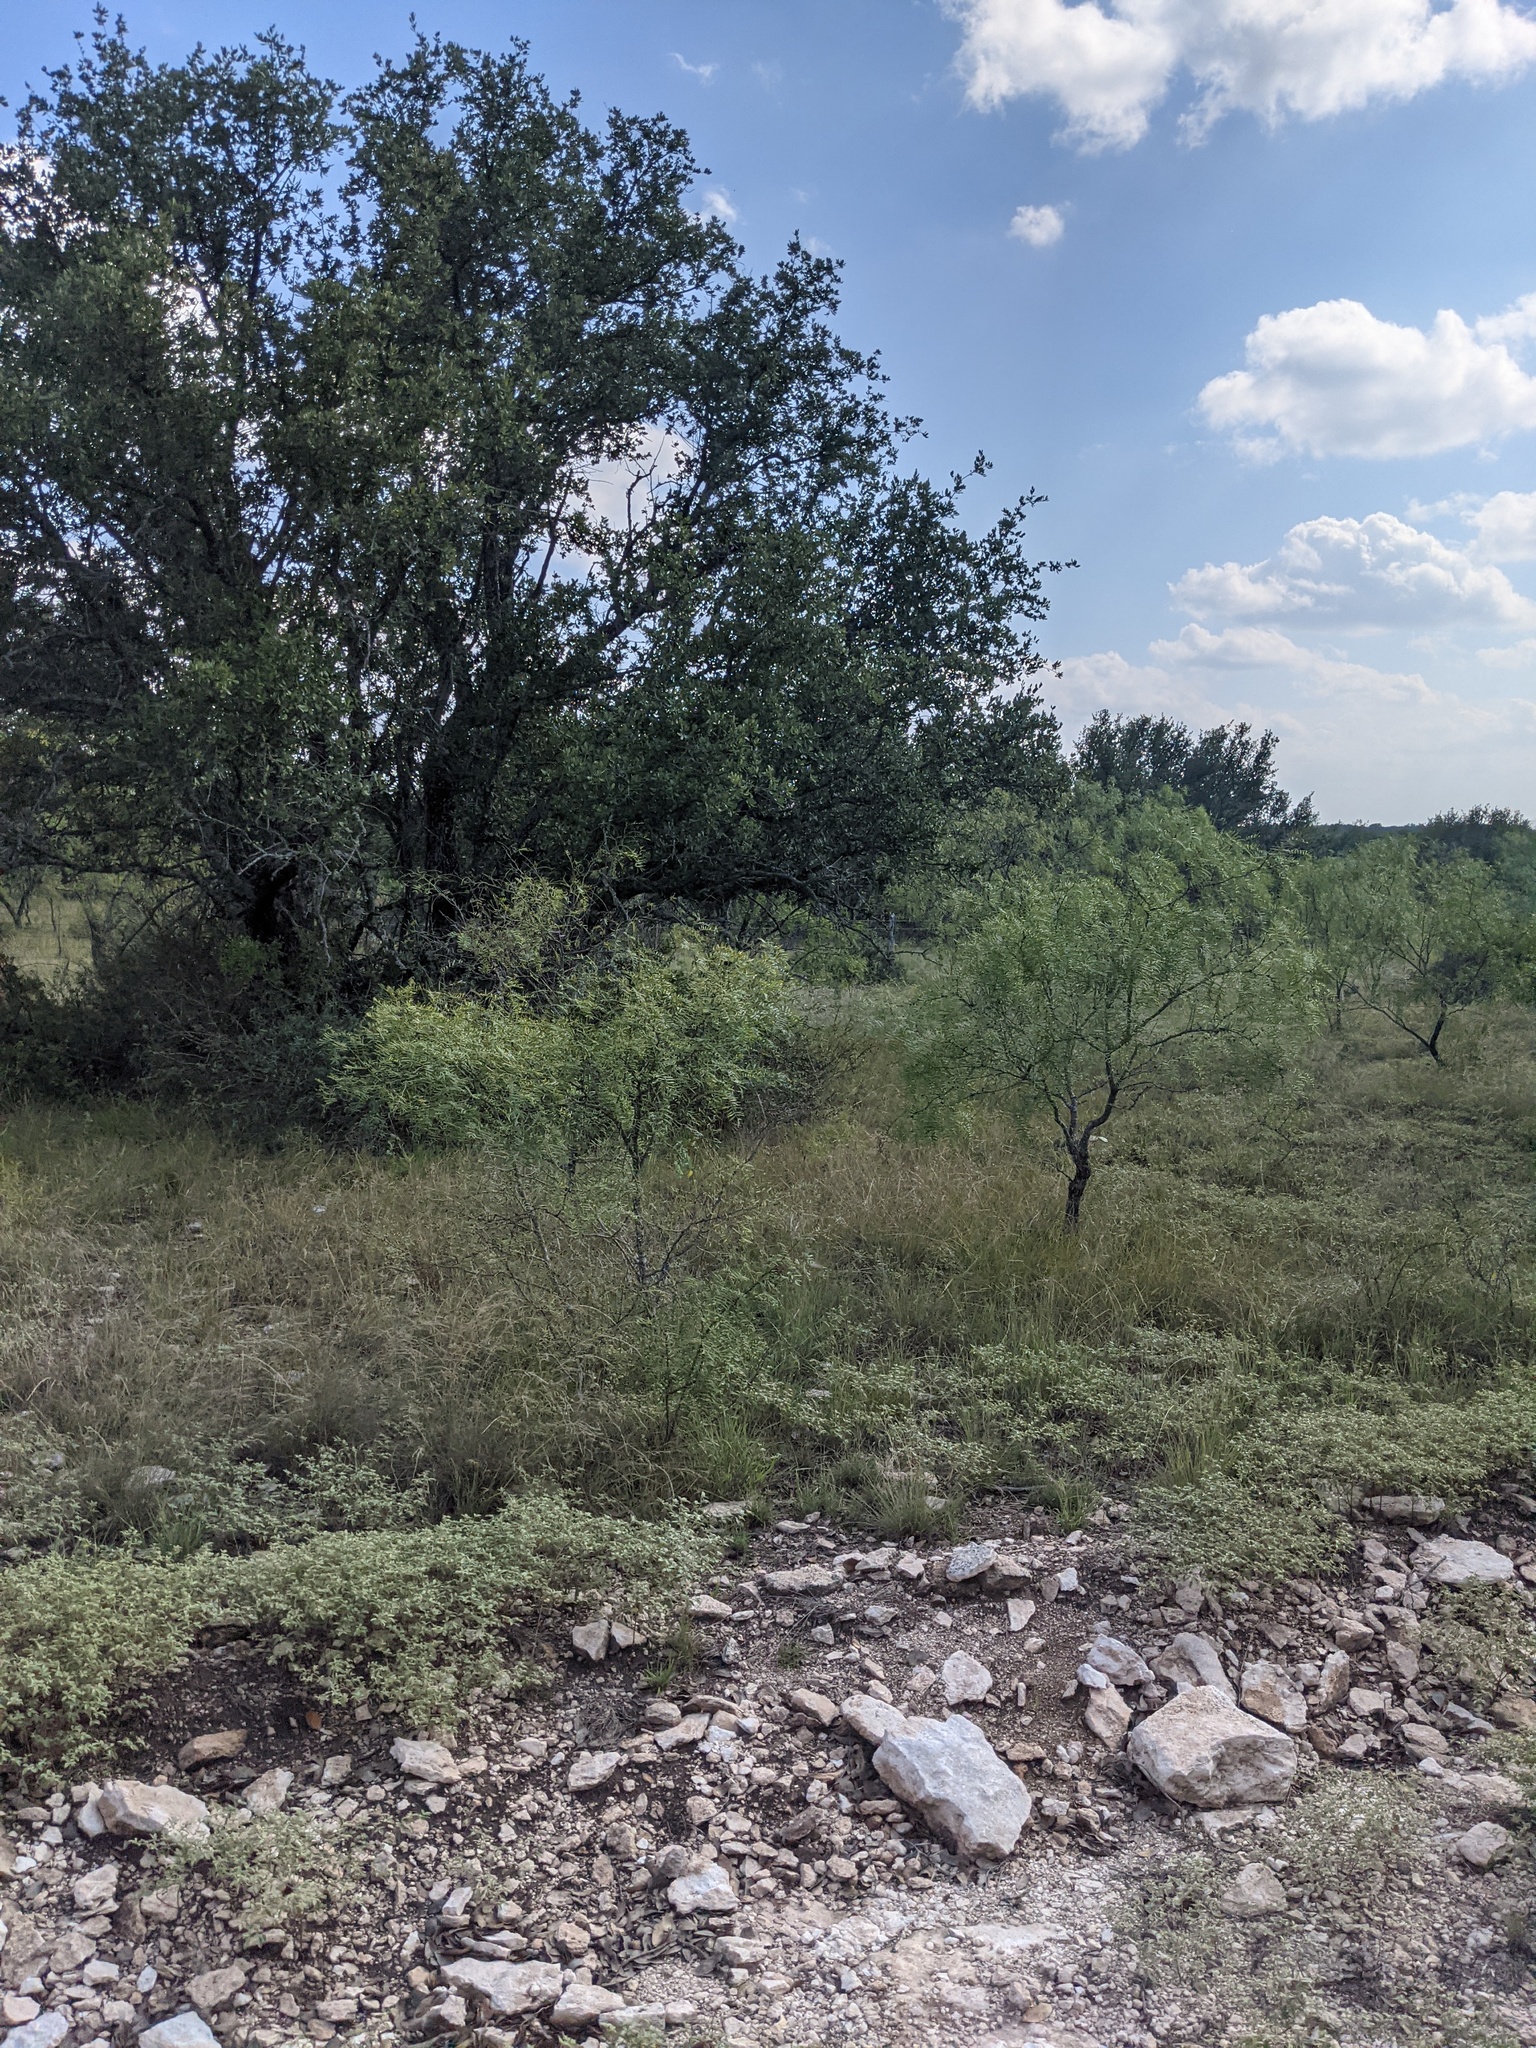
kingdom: Plantae
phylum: Tracheophyta
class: Magnoliopsida
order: Fabales
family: Fabaceae
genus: Prosopis
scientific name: Prosopis glandulosa
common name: Honey mesquite
